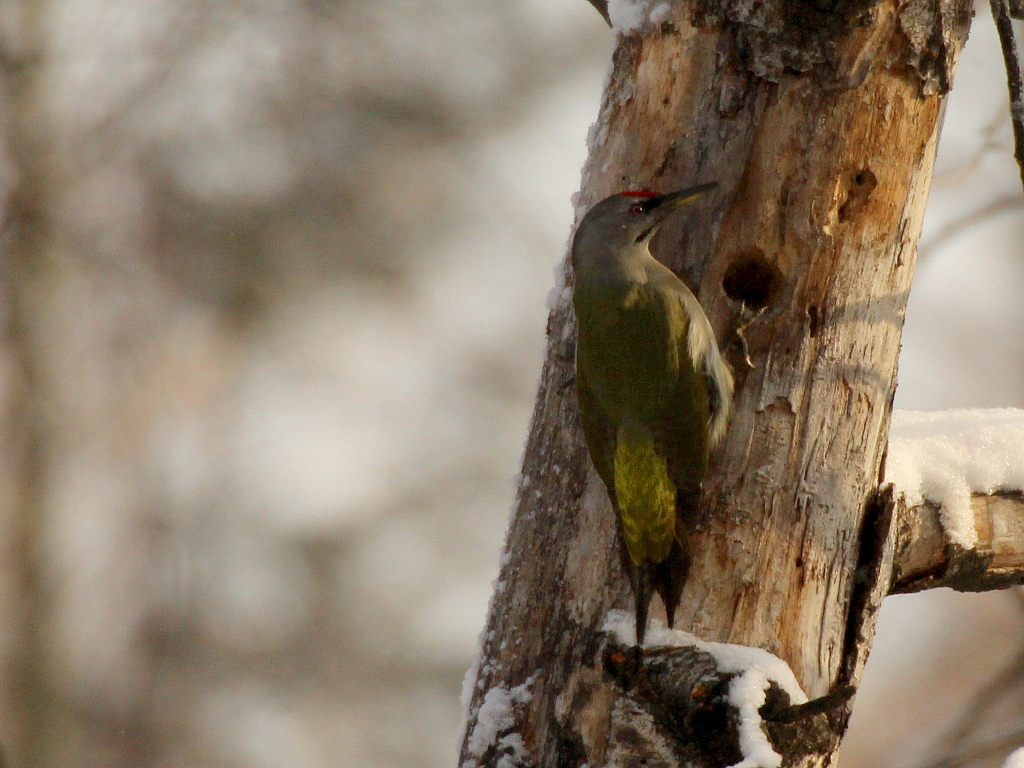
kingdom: Animalia
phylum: Chordata
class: Aves
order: Piciformes
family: Picidae
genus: Picus
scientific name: Picus canus
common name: Grey-headed woodpecker
